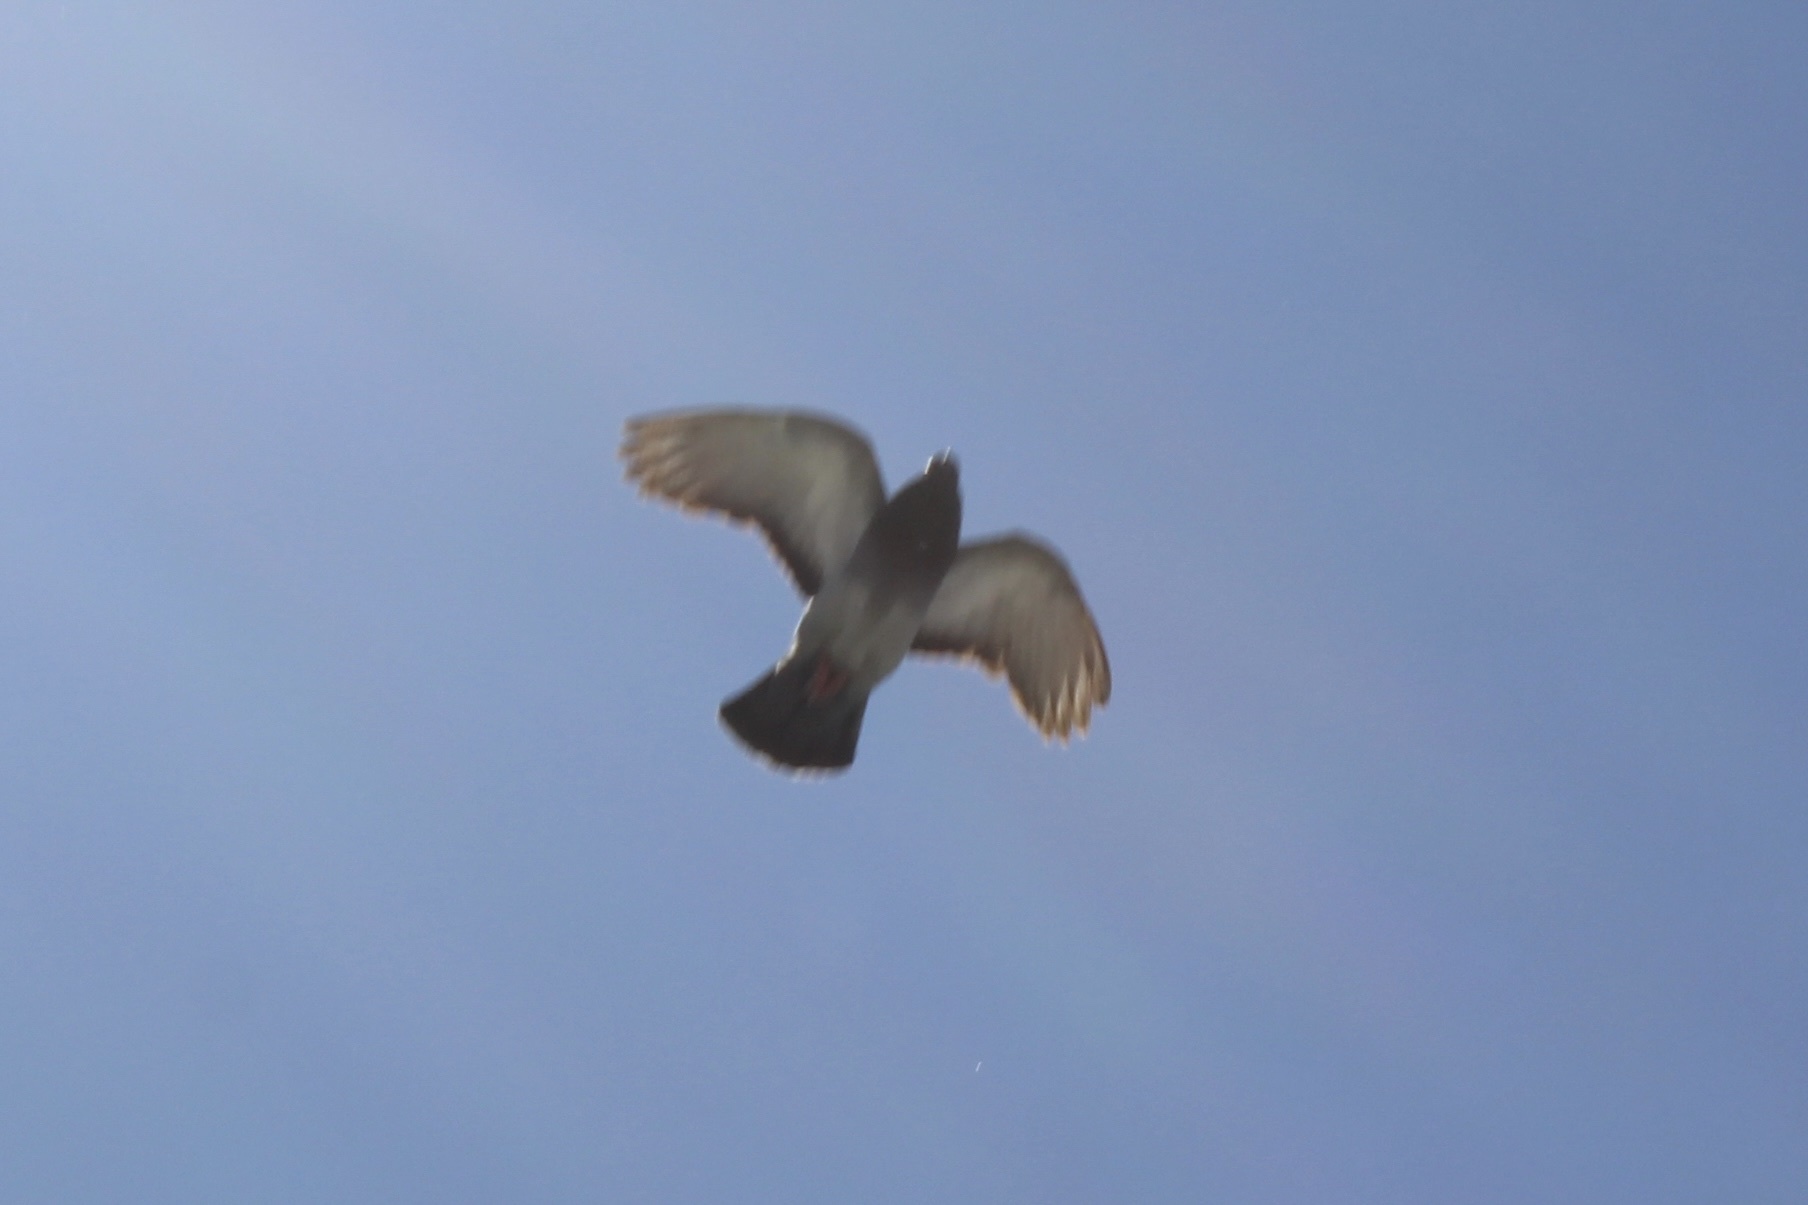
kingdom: Animalia
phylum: Chordata
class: Aves
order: Columbiformes
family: Columbidae
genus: Columba
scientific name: Columba livia
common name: Rock pigeon
